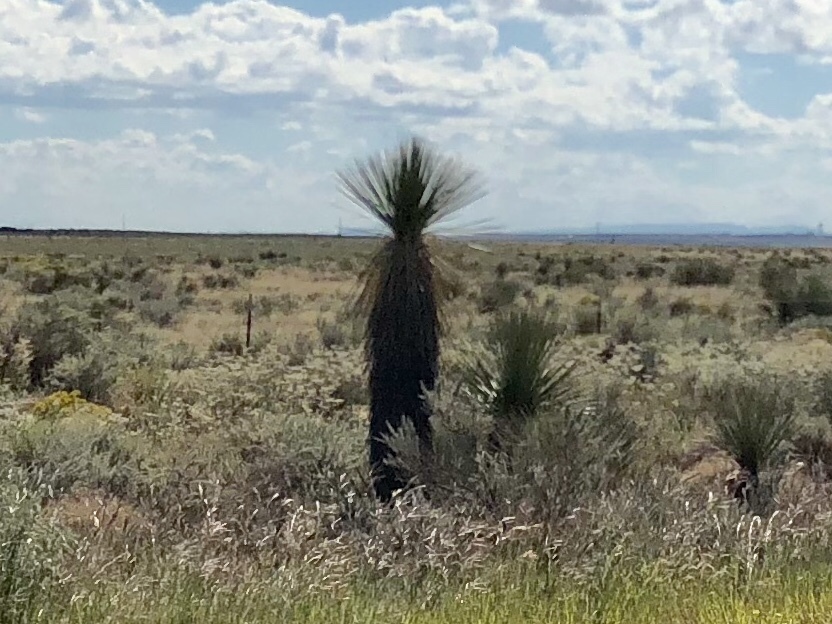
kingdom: Plantae
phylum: Tracheophyta
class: Liliopsida
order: Asparagales
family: Asparagaceae
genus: Yucca
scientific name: Yucca elata
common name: Palmella
